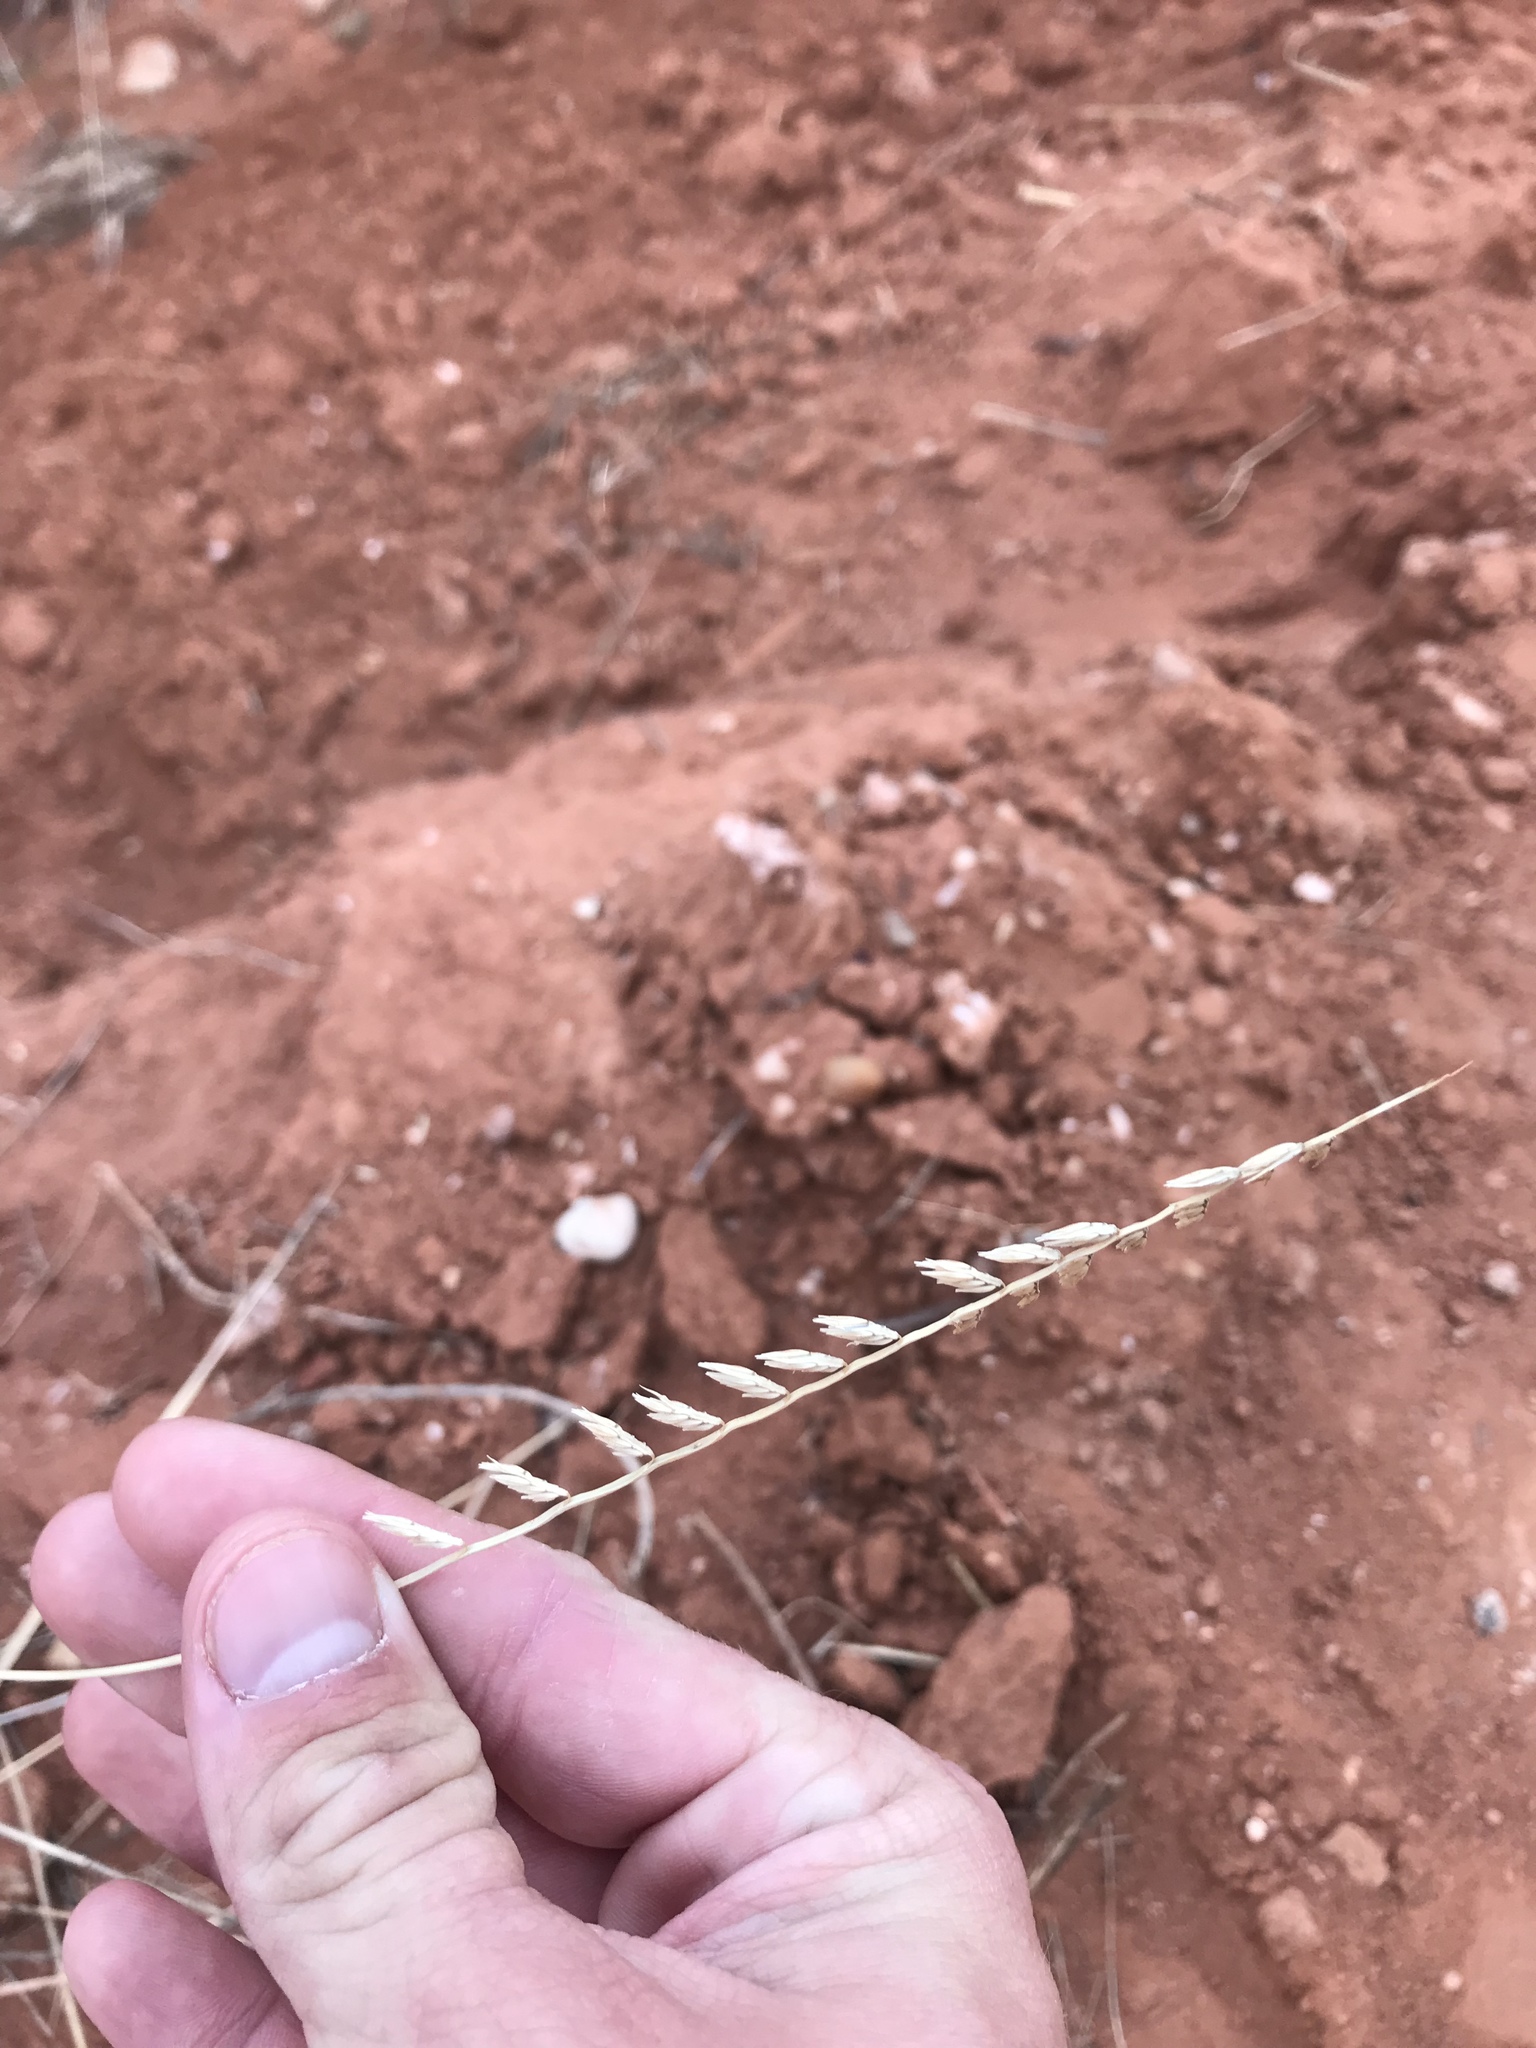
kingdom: Plantae
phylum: Tracheophyta
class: Liliopsida
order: Poales
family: Poaceae
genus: Bouteloua
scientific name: Bouteloua curtipendula
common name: Side-oats grama
